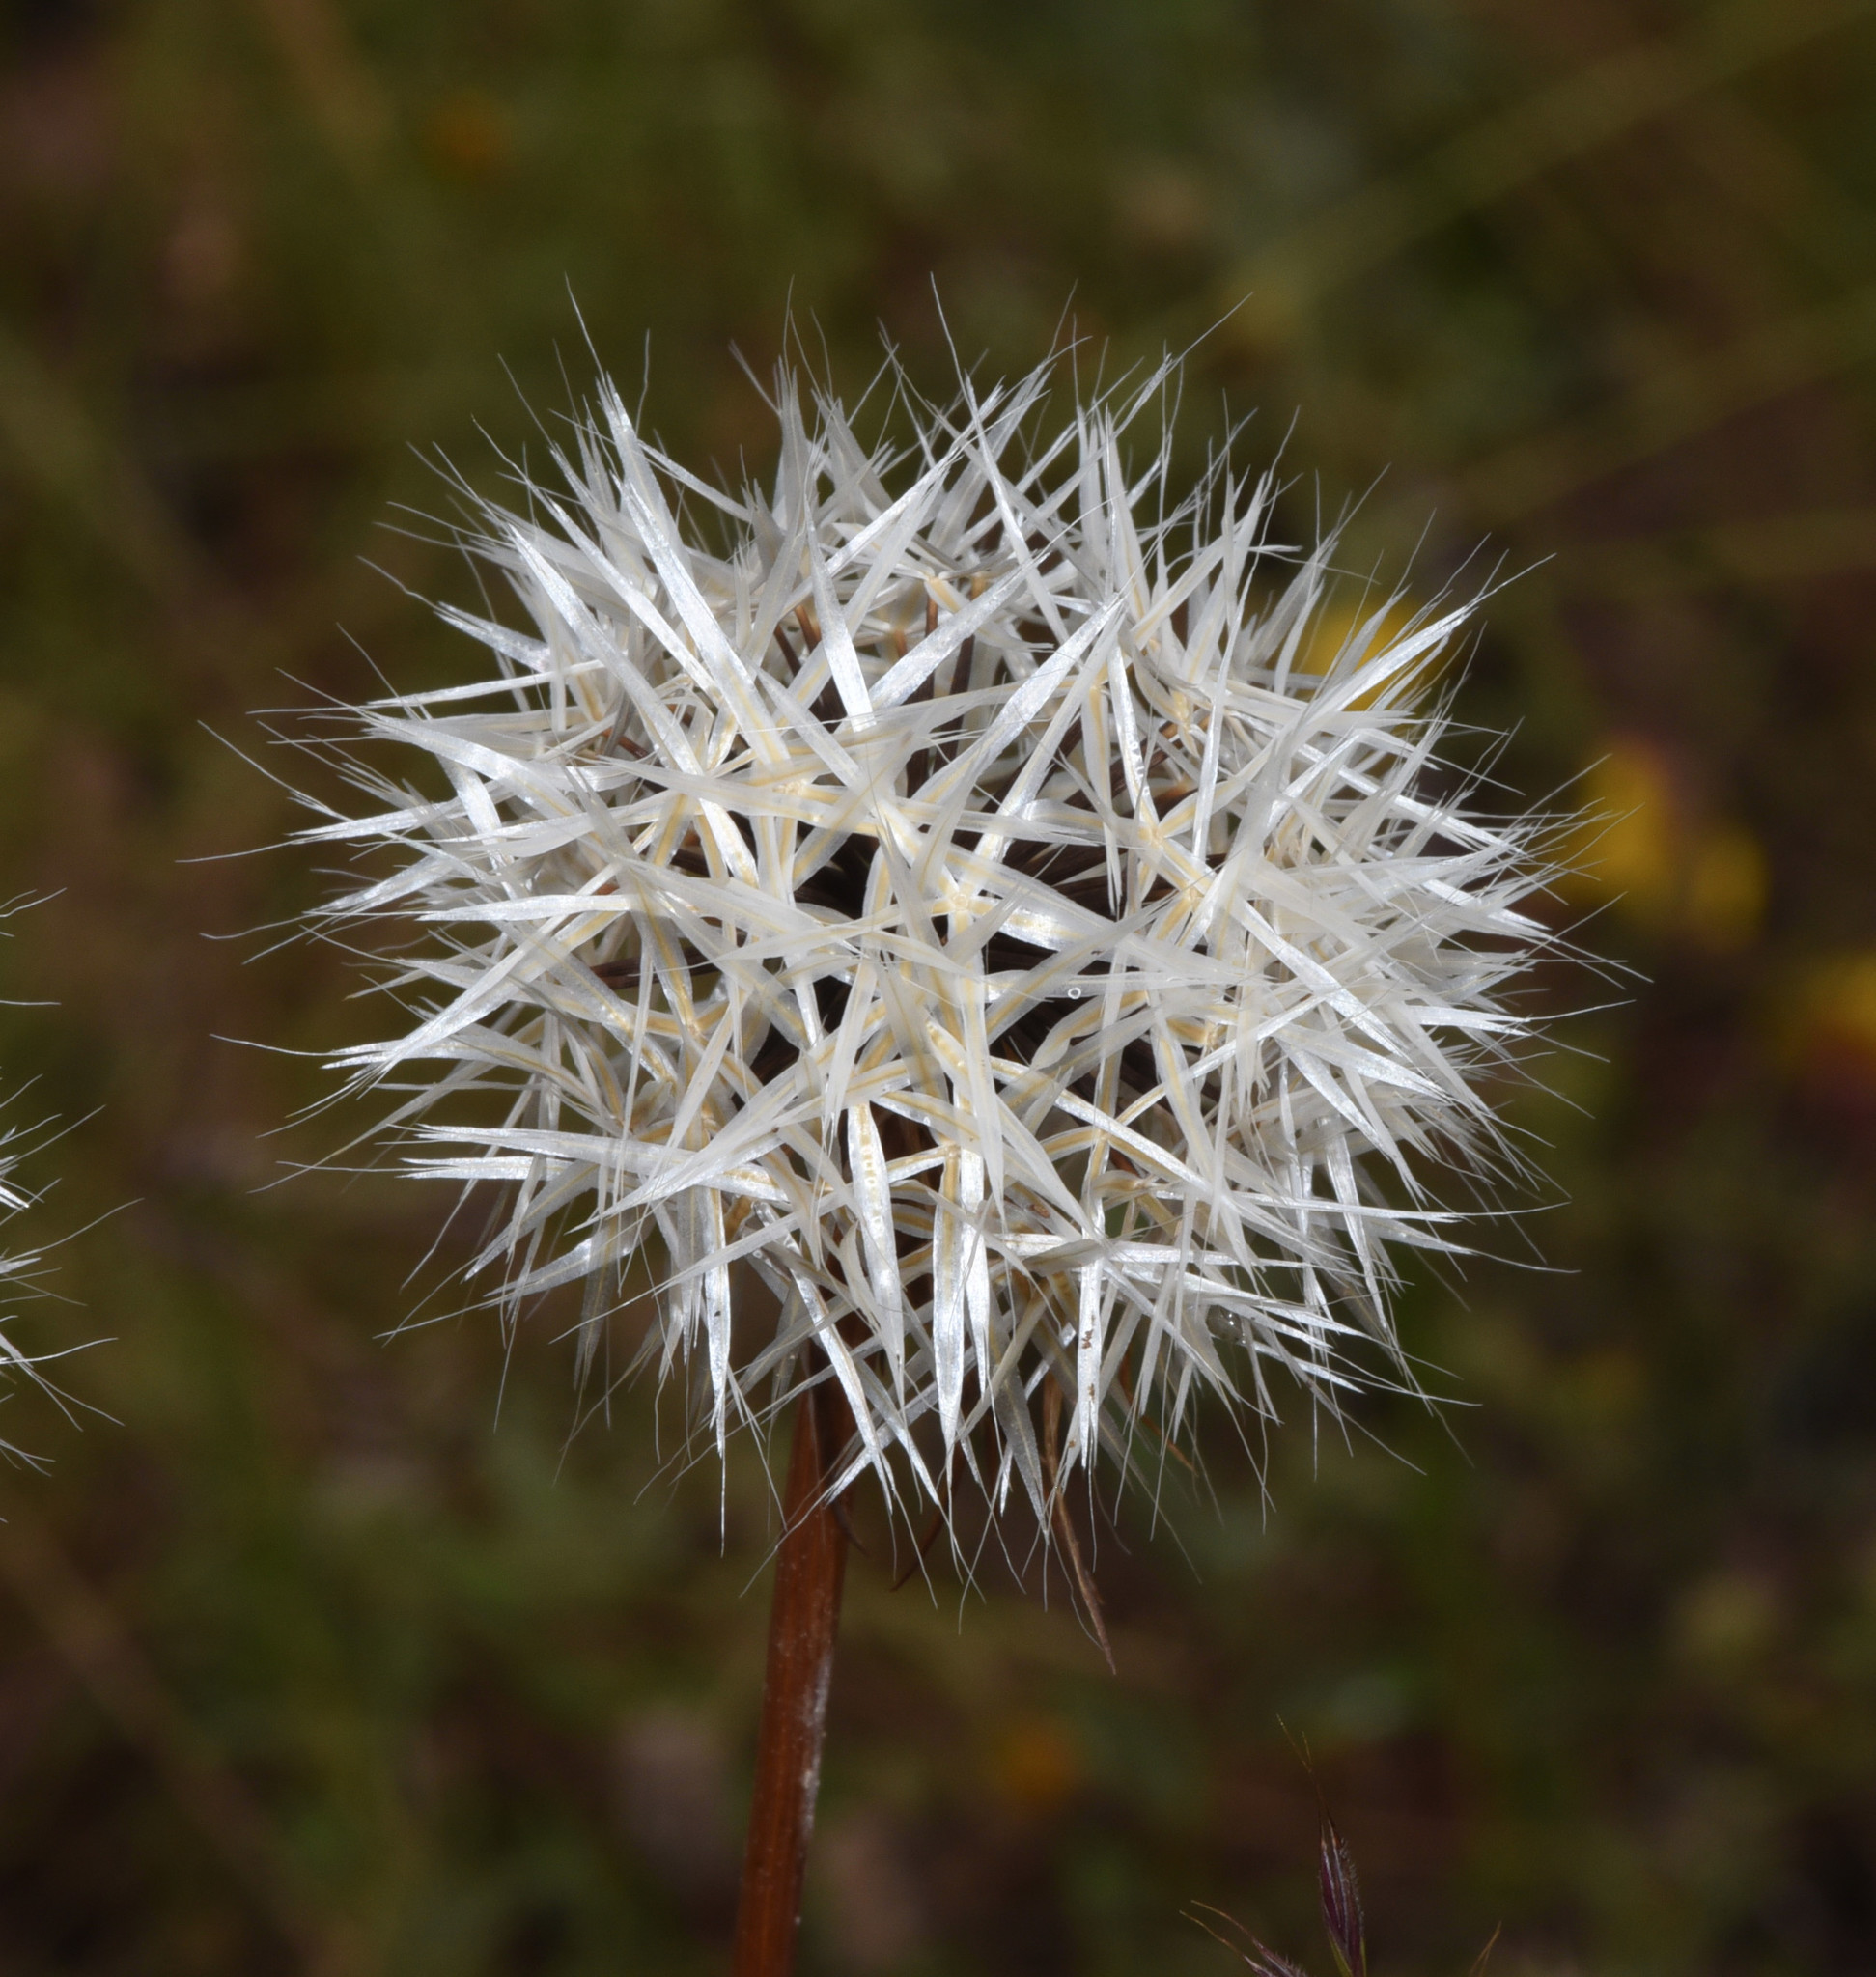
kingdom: Plantae
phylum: Tracheophyta
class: Magnoliopsida
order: Asterales
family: Asteraceae
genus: Microseris
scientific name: Microseris lindleyi
